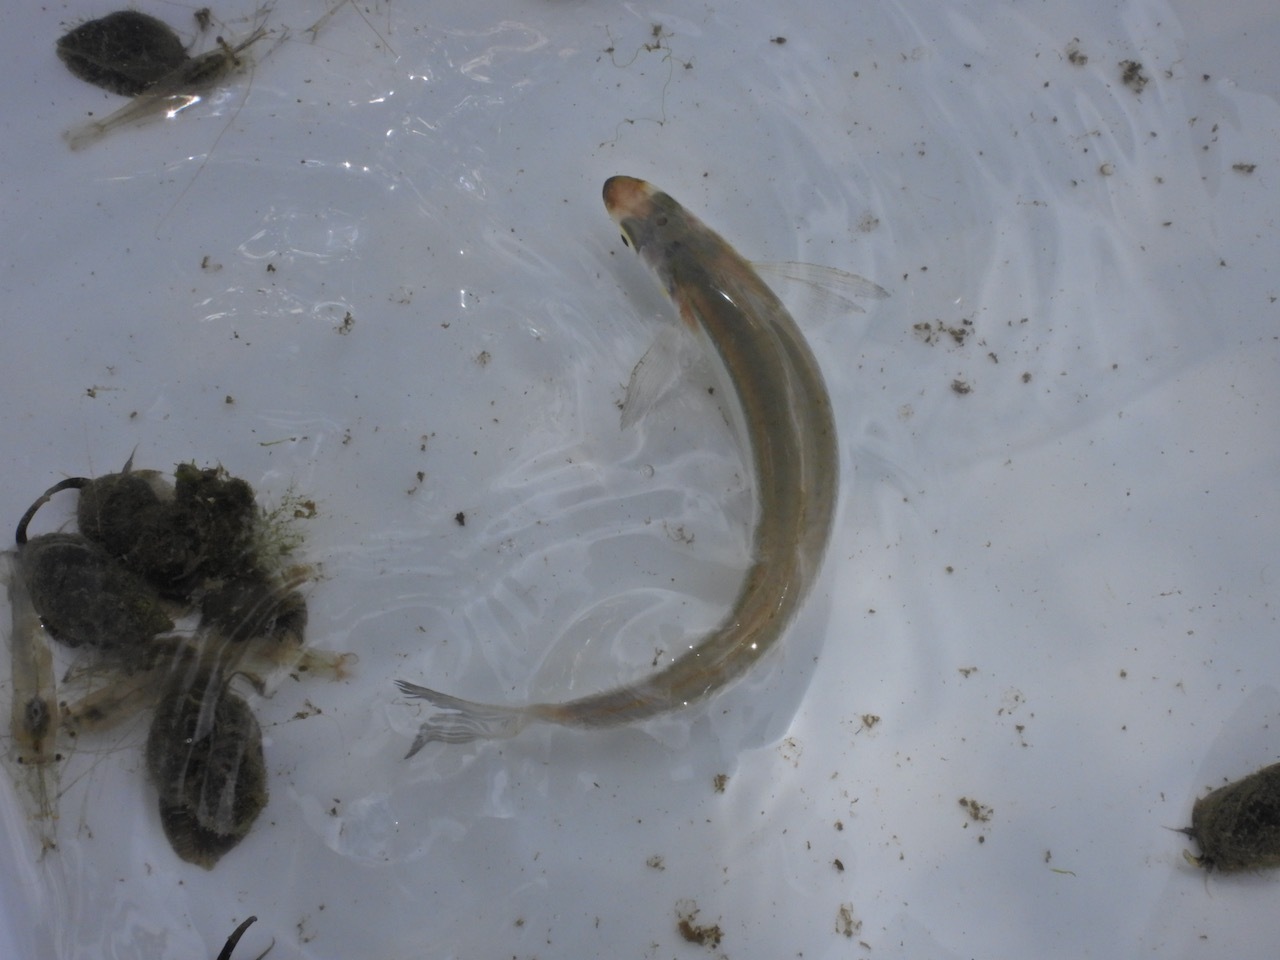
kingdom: Animalia
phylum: Chordata
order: Atheriniformes
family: Atherinopsidae
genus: Atherinops
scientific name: Atherinops affinis
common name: Topsmelt
